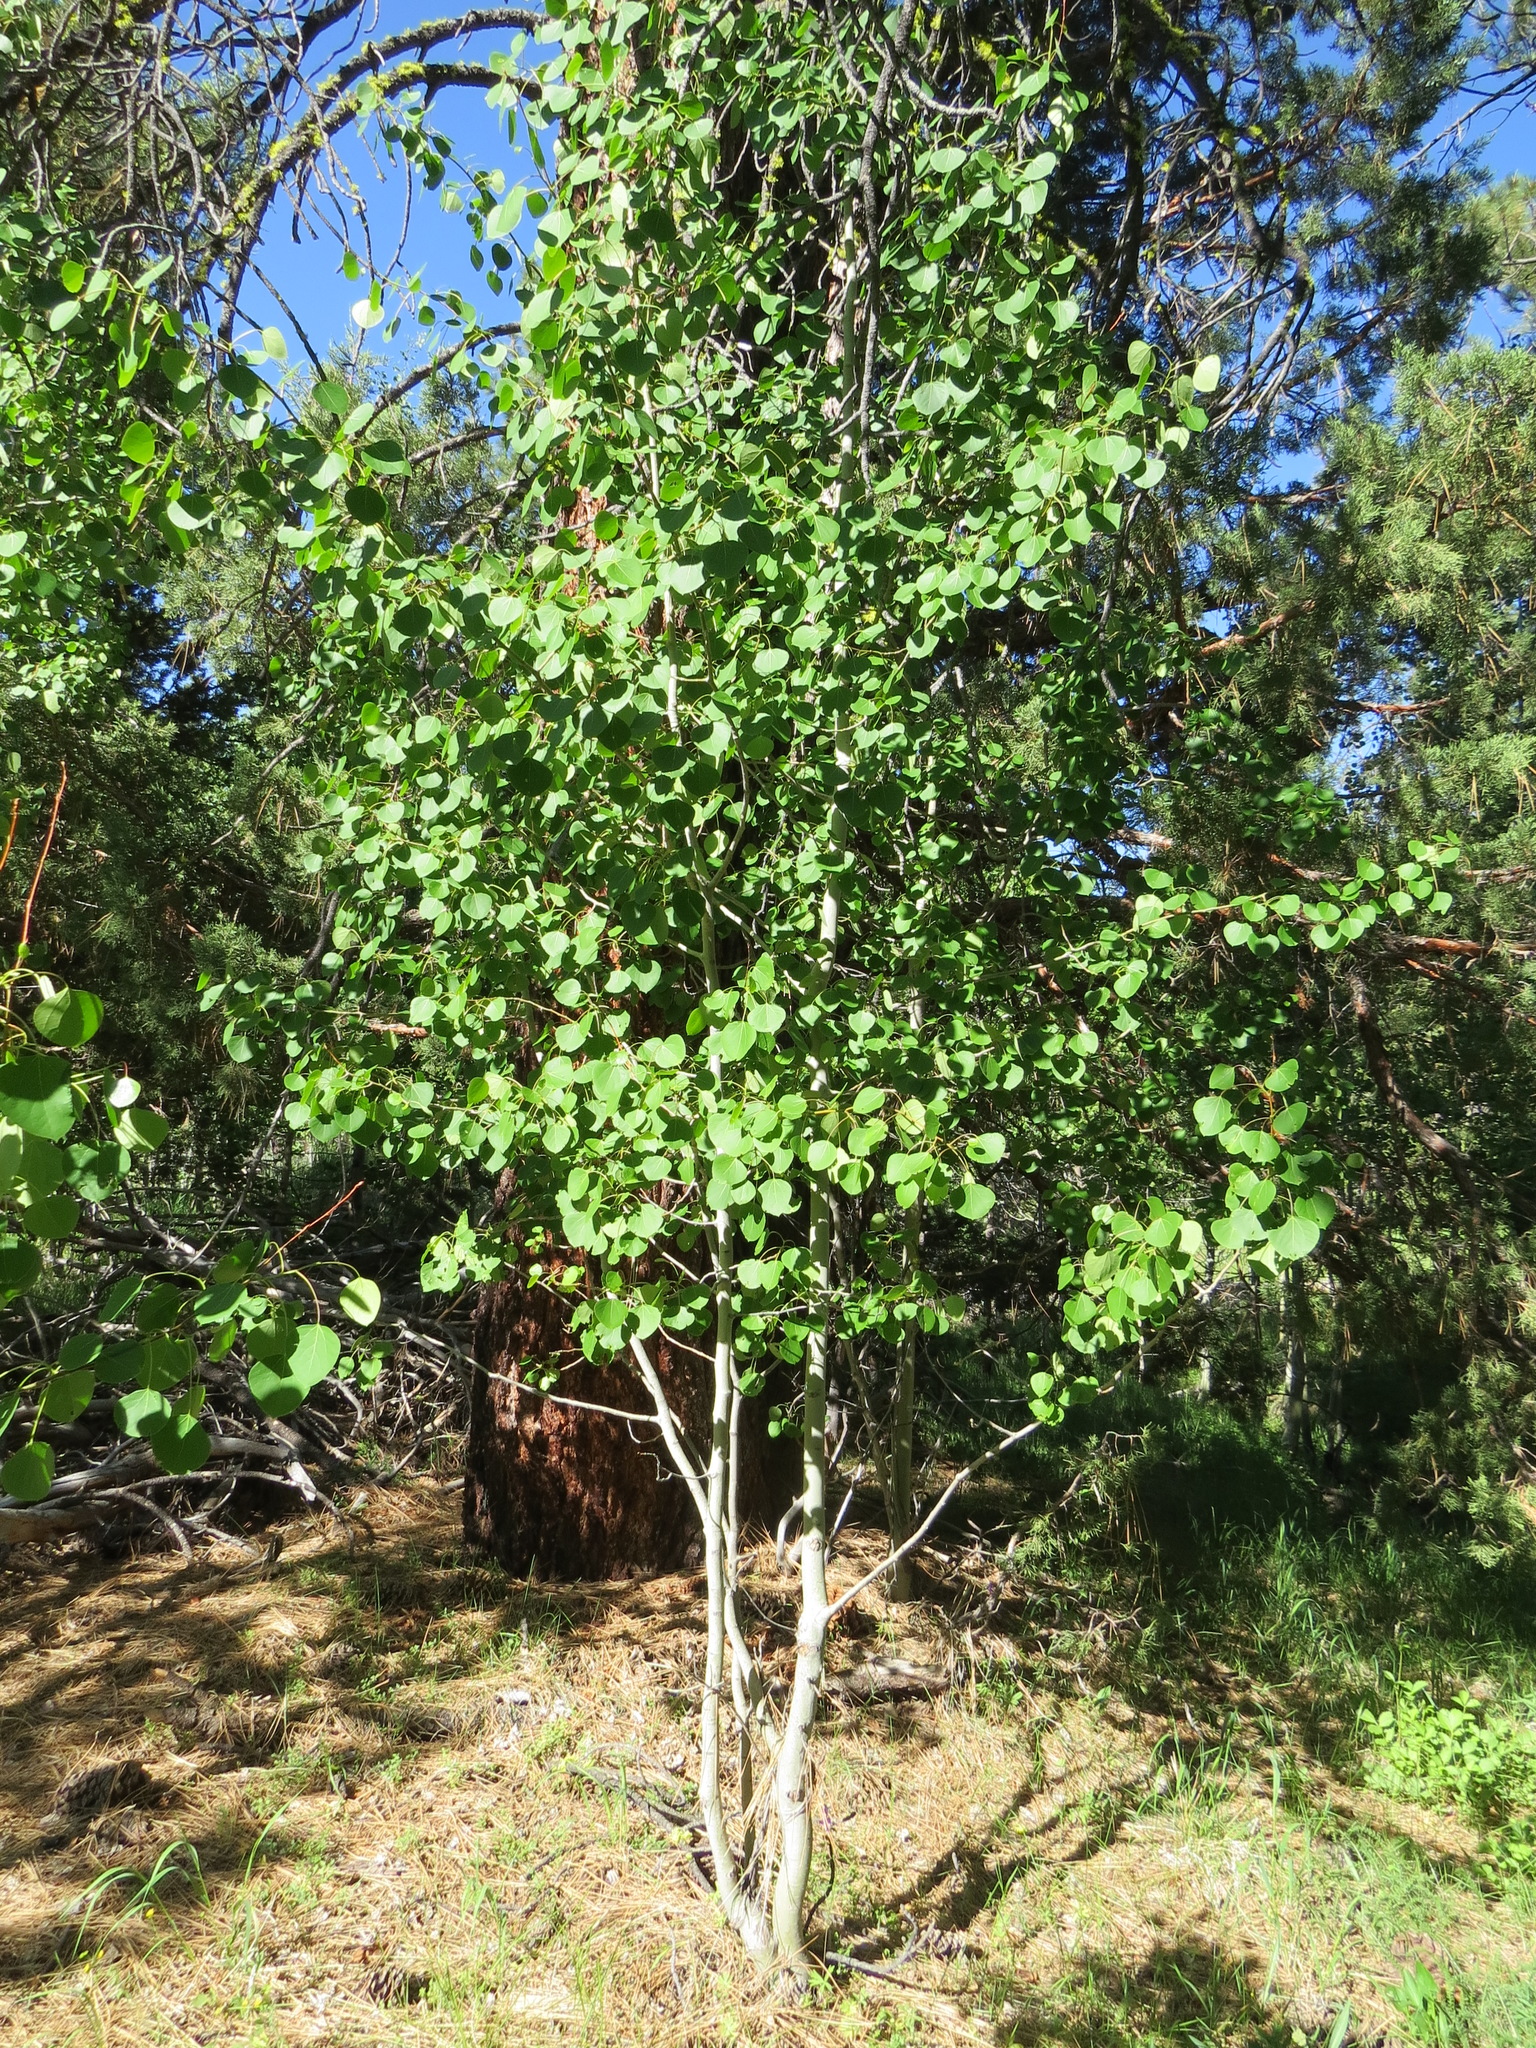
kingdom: Plantae
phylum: Tracheophyta
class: Magnoliopsida
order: Malpighiales
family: Salicaceae
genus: Populus
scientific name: Populus tremuloides
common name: Quaking aspen
